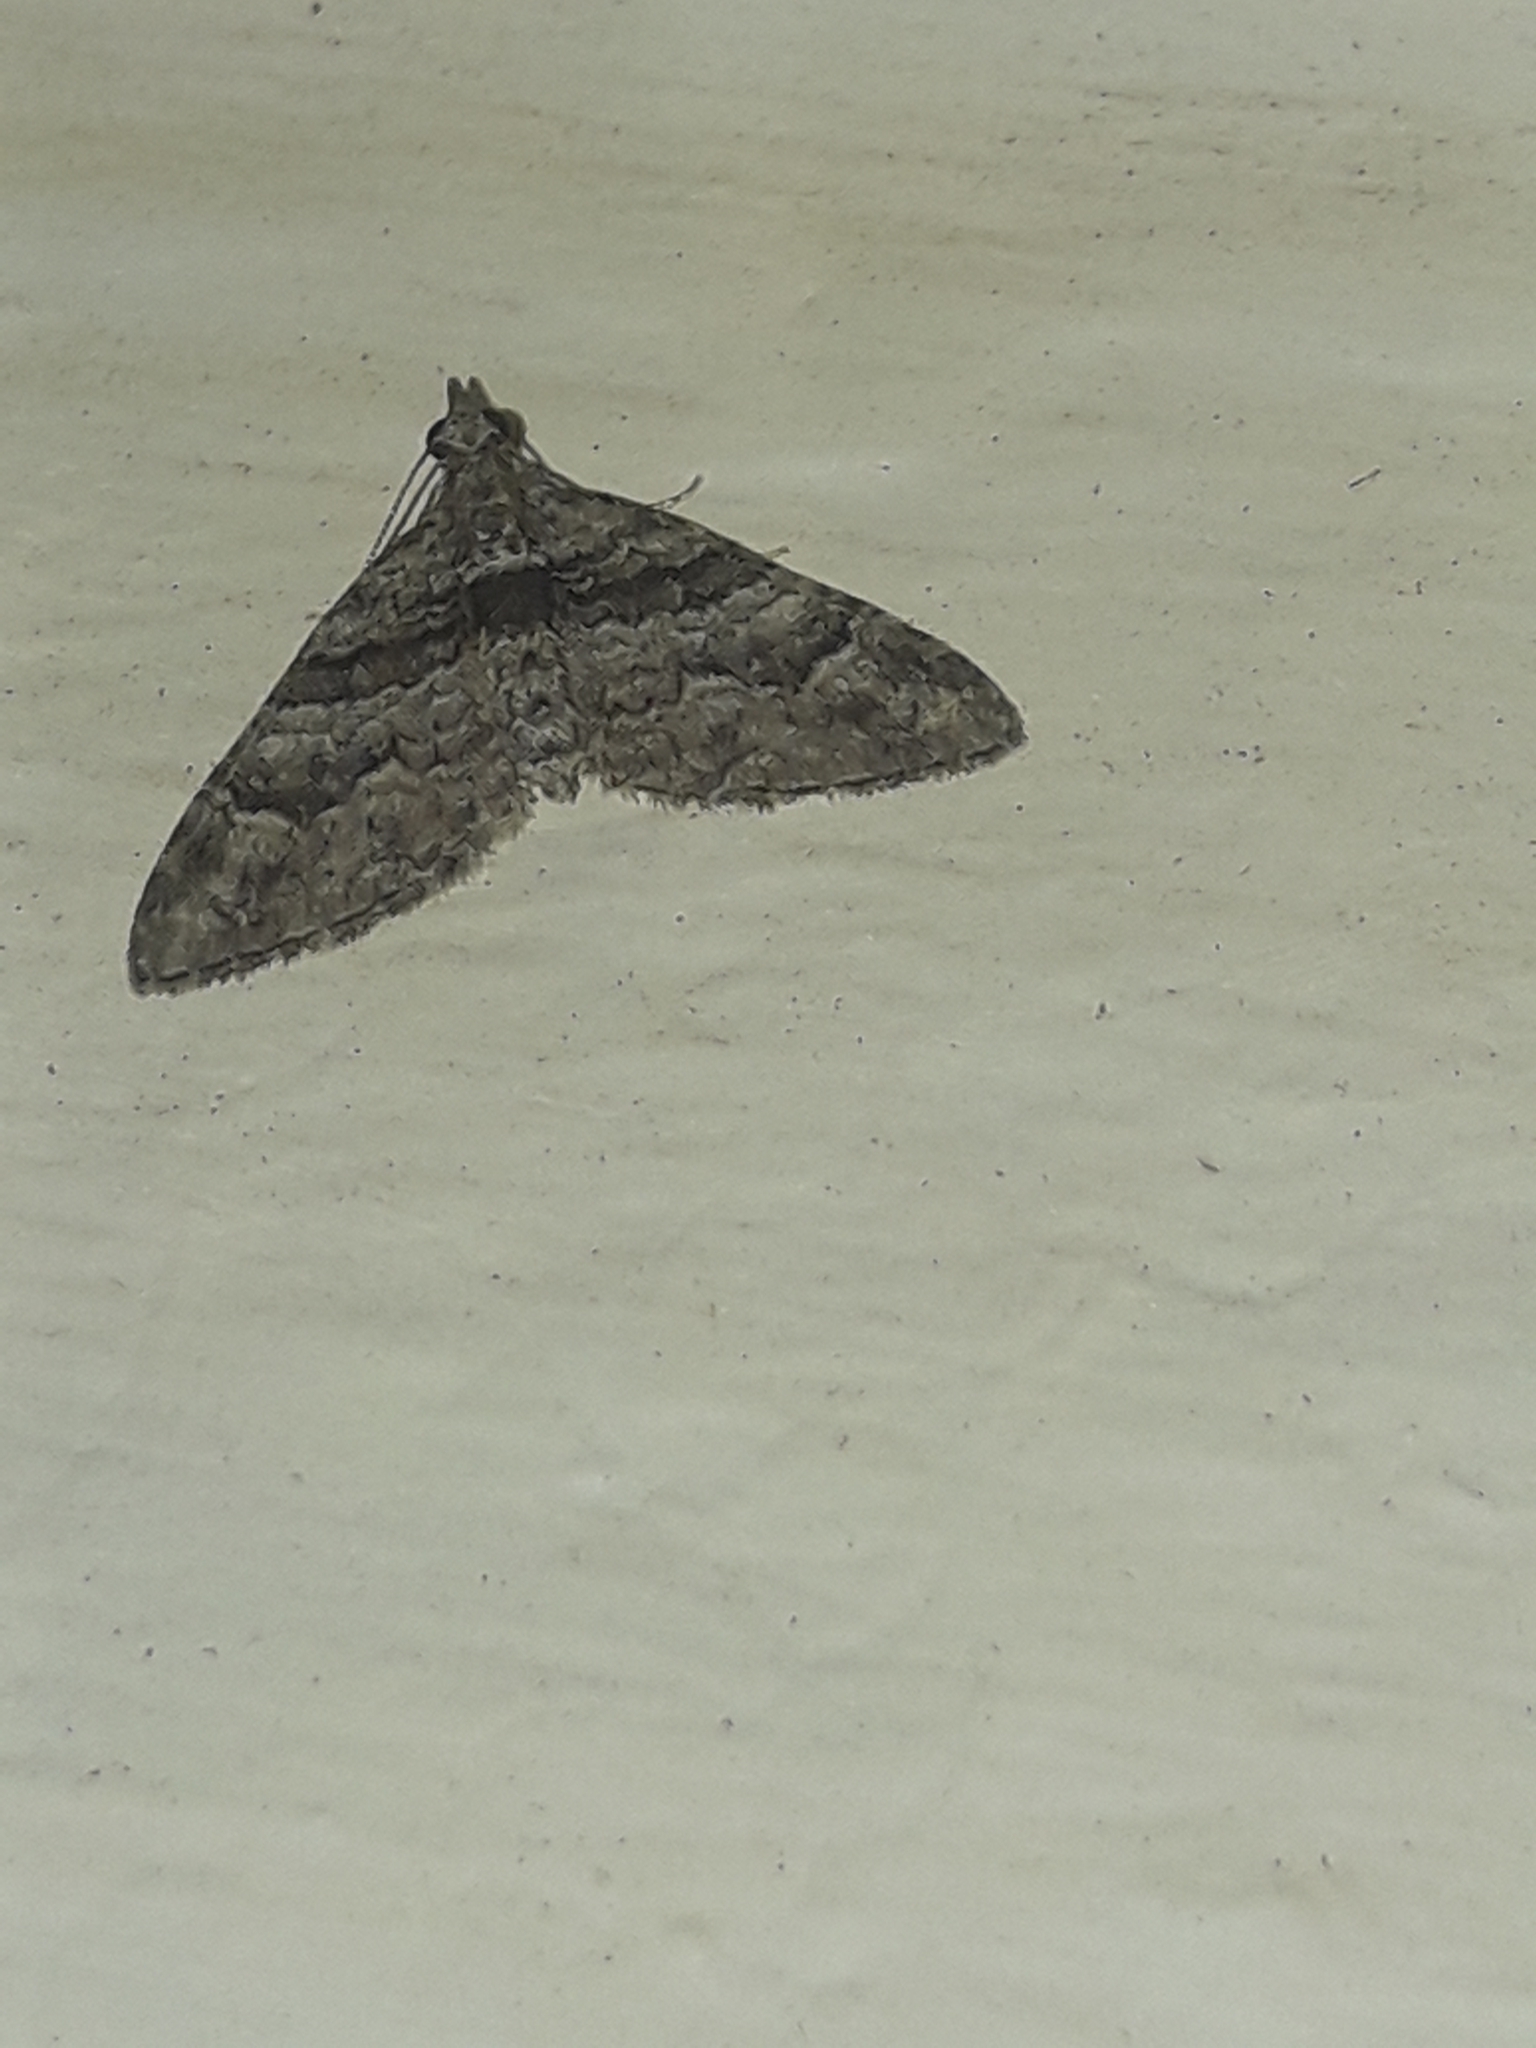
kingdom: Animalia
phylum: Arthropoda
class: Insecta
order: Lepidoptera
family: Geometridae
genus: Phrissogonus
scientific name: Phrissogonus laticostata
